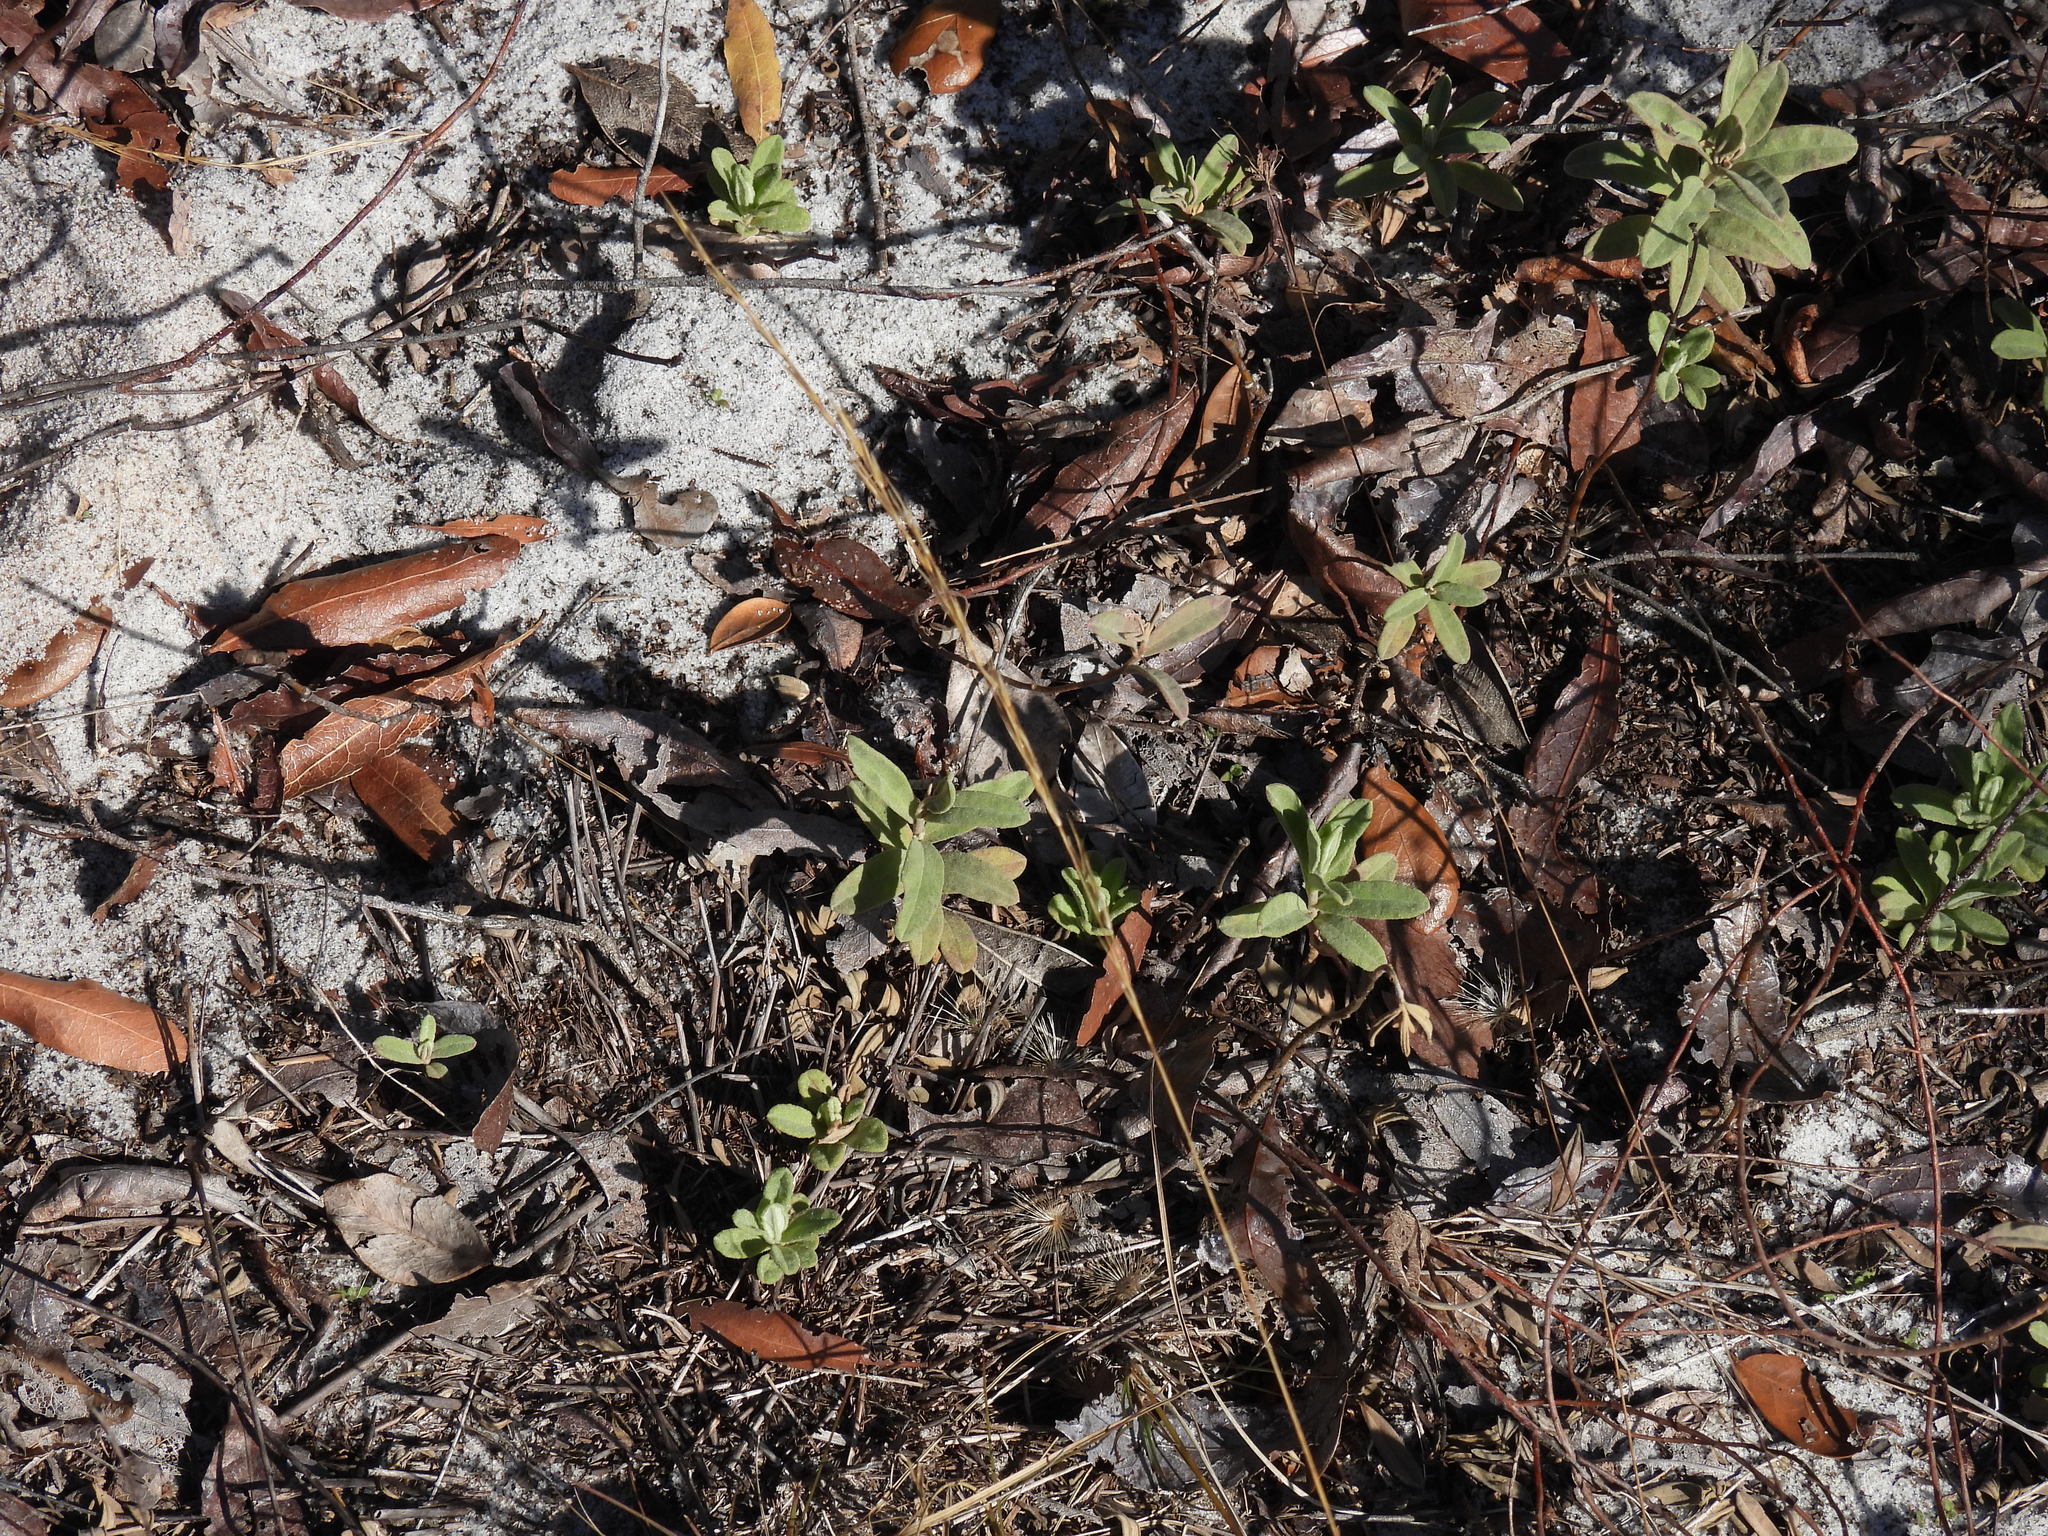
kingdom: Plantae
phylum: Tracheophyta
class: Magnoliopsida
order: Malvales
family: Cistaceae
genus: Crocanthemum
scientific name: Crocanthemum nashii
